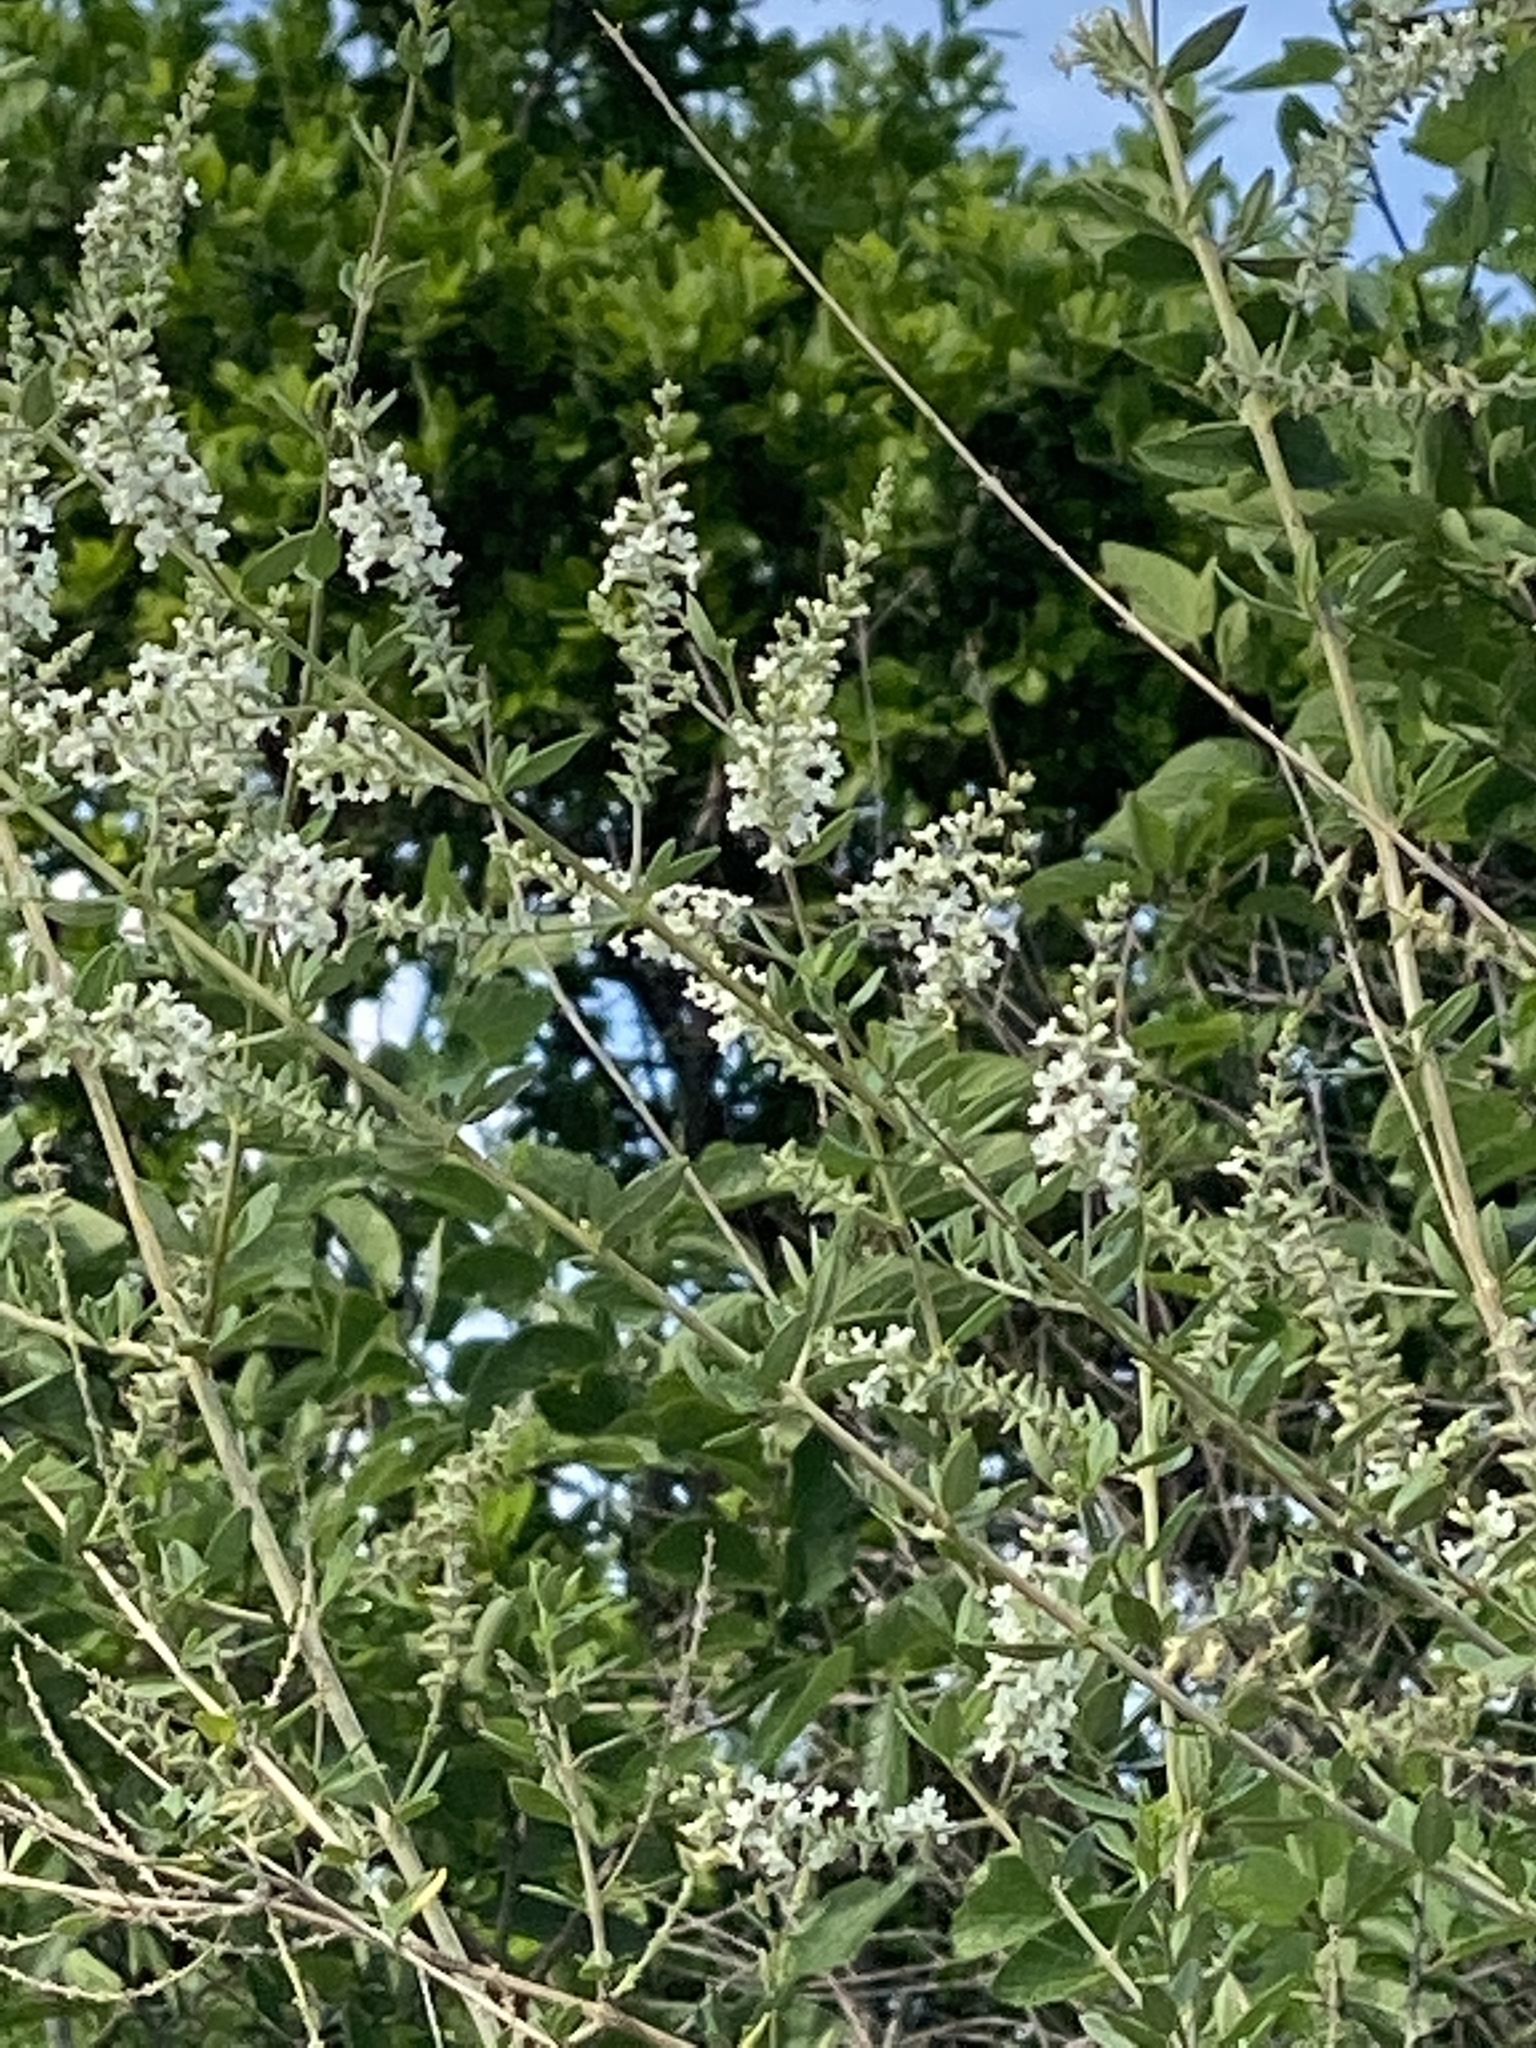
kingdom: Plantae
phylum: Tracheophyta
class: Magnoliopsida
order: Lamiales
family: Verbenaceae
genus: Aloysia
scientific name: Aloysia gratissima
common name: Common bee-brush
